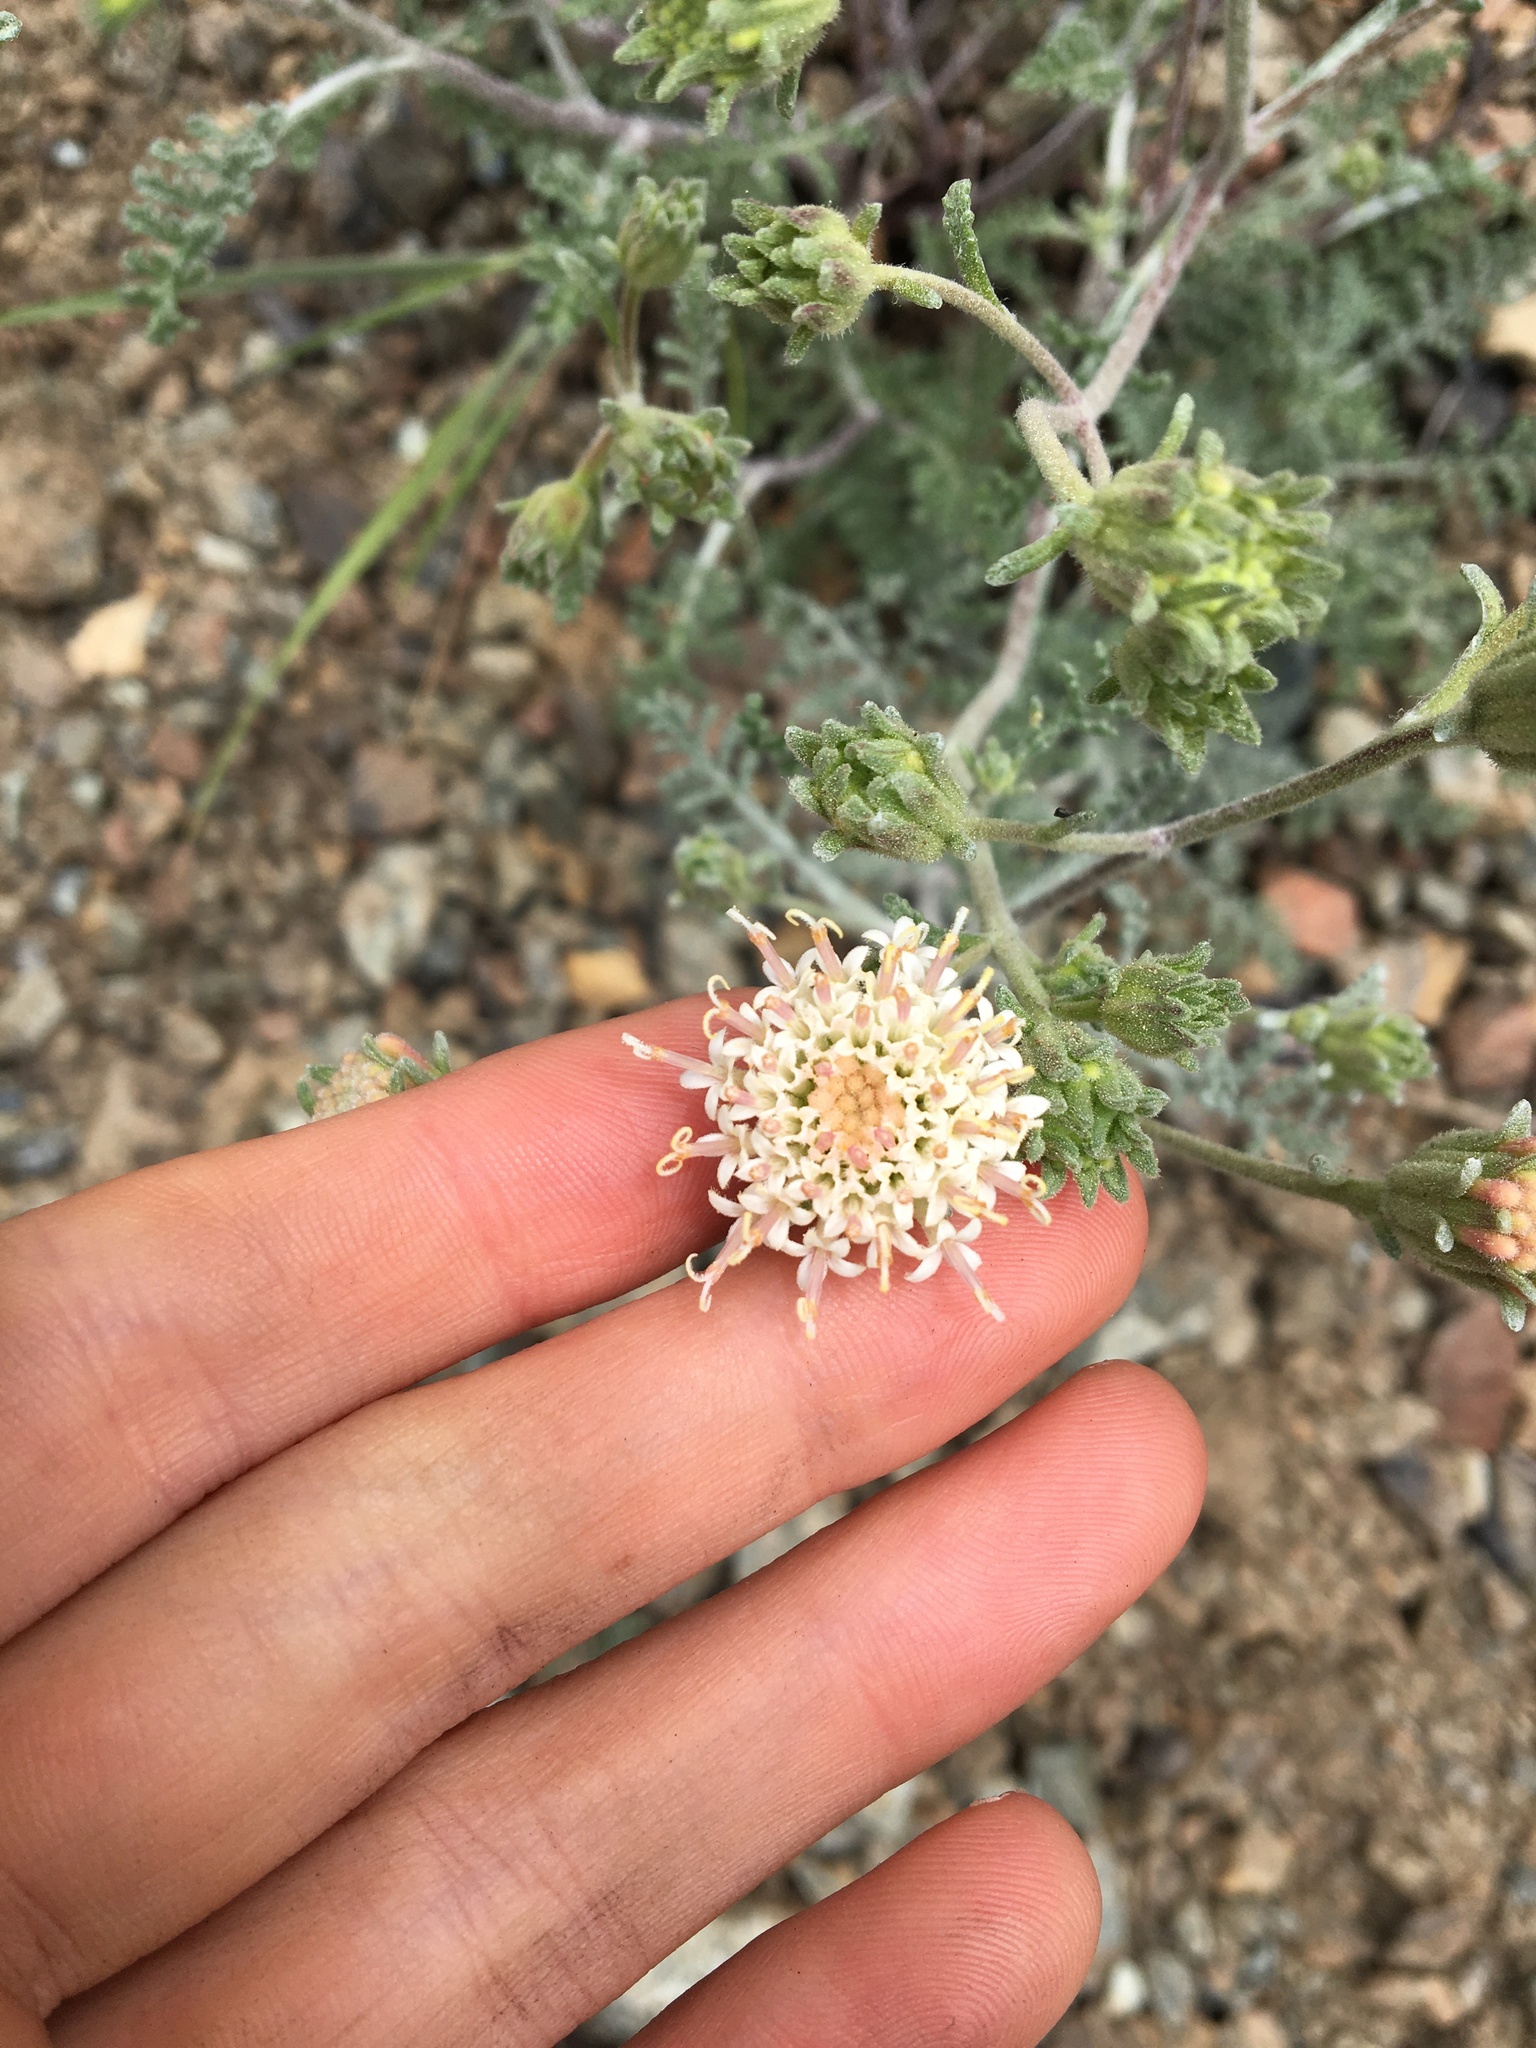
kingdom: Plantae
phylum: Tracheophyta
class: Magnoliopsida
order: Asterales
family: Asteraceae
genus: Chaenactis
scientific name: Chaenactis douglasii
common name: Hoary pincushion
